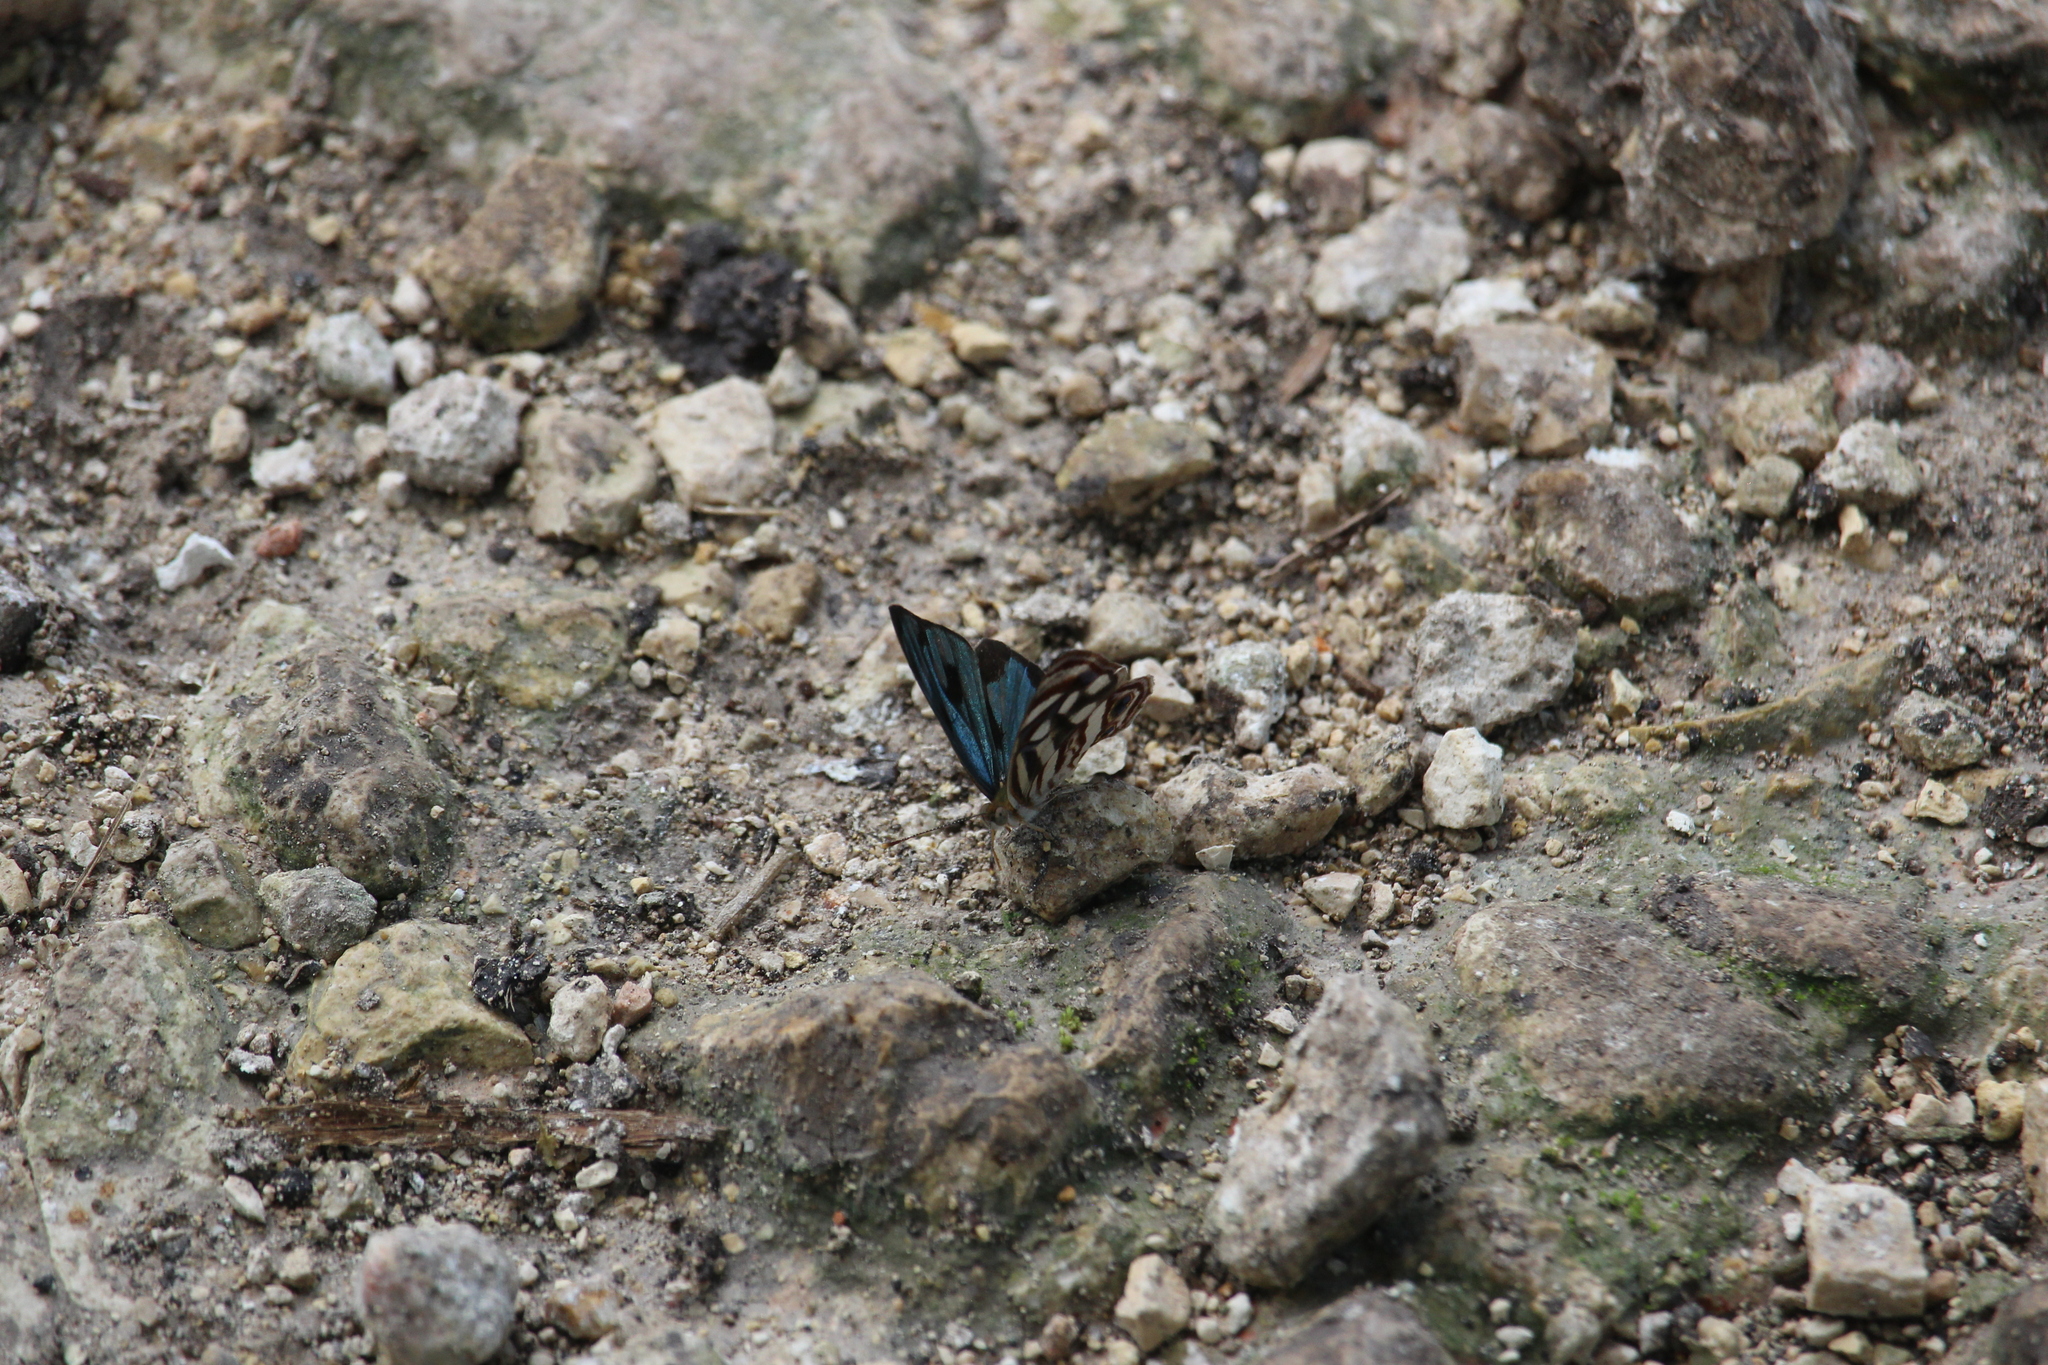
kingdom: Animalia
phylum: Arthropoda
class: Insecta
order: Lepidoptera
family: Nymphalidae
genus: Dynamine
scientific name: Dynamine mylitta
